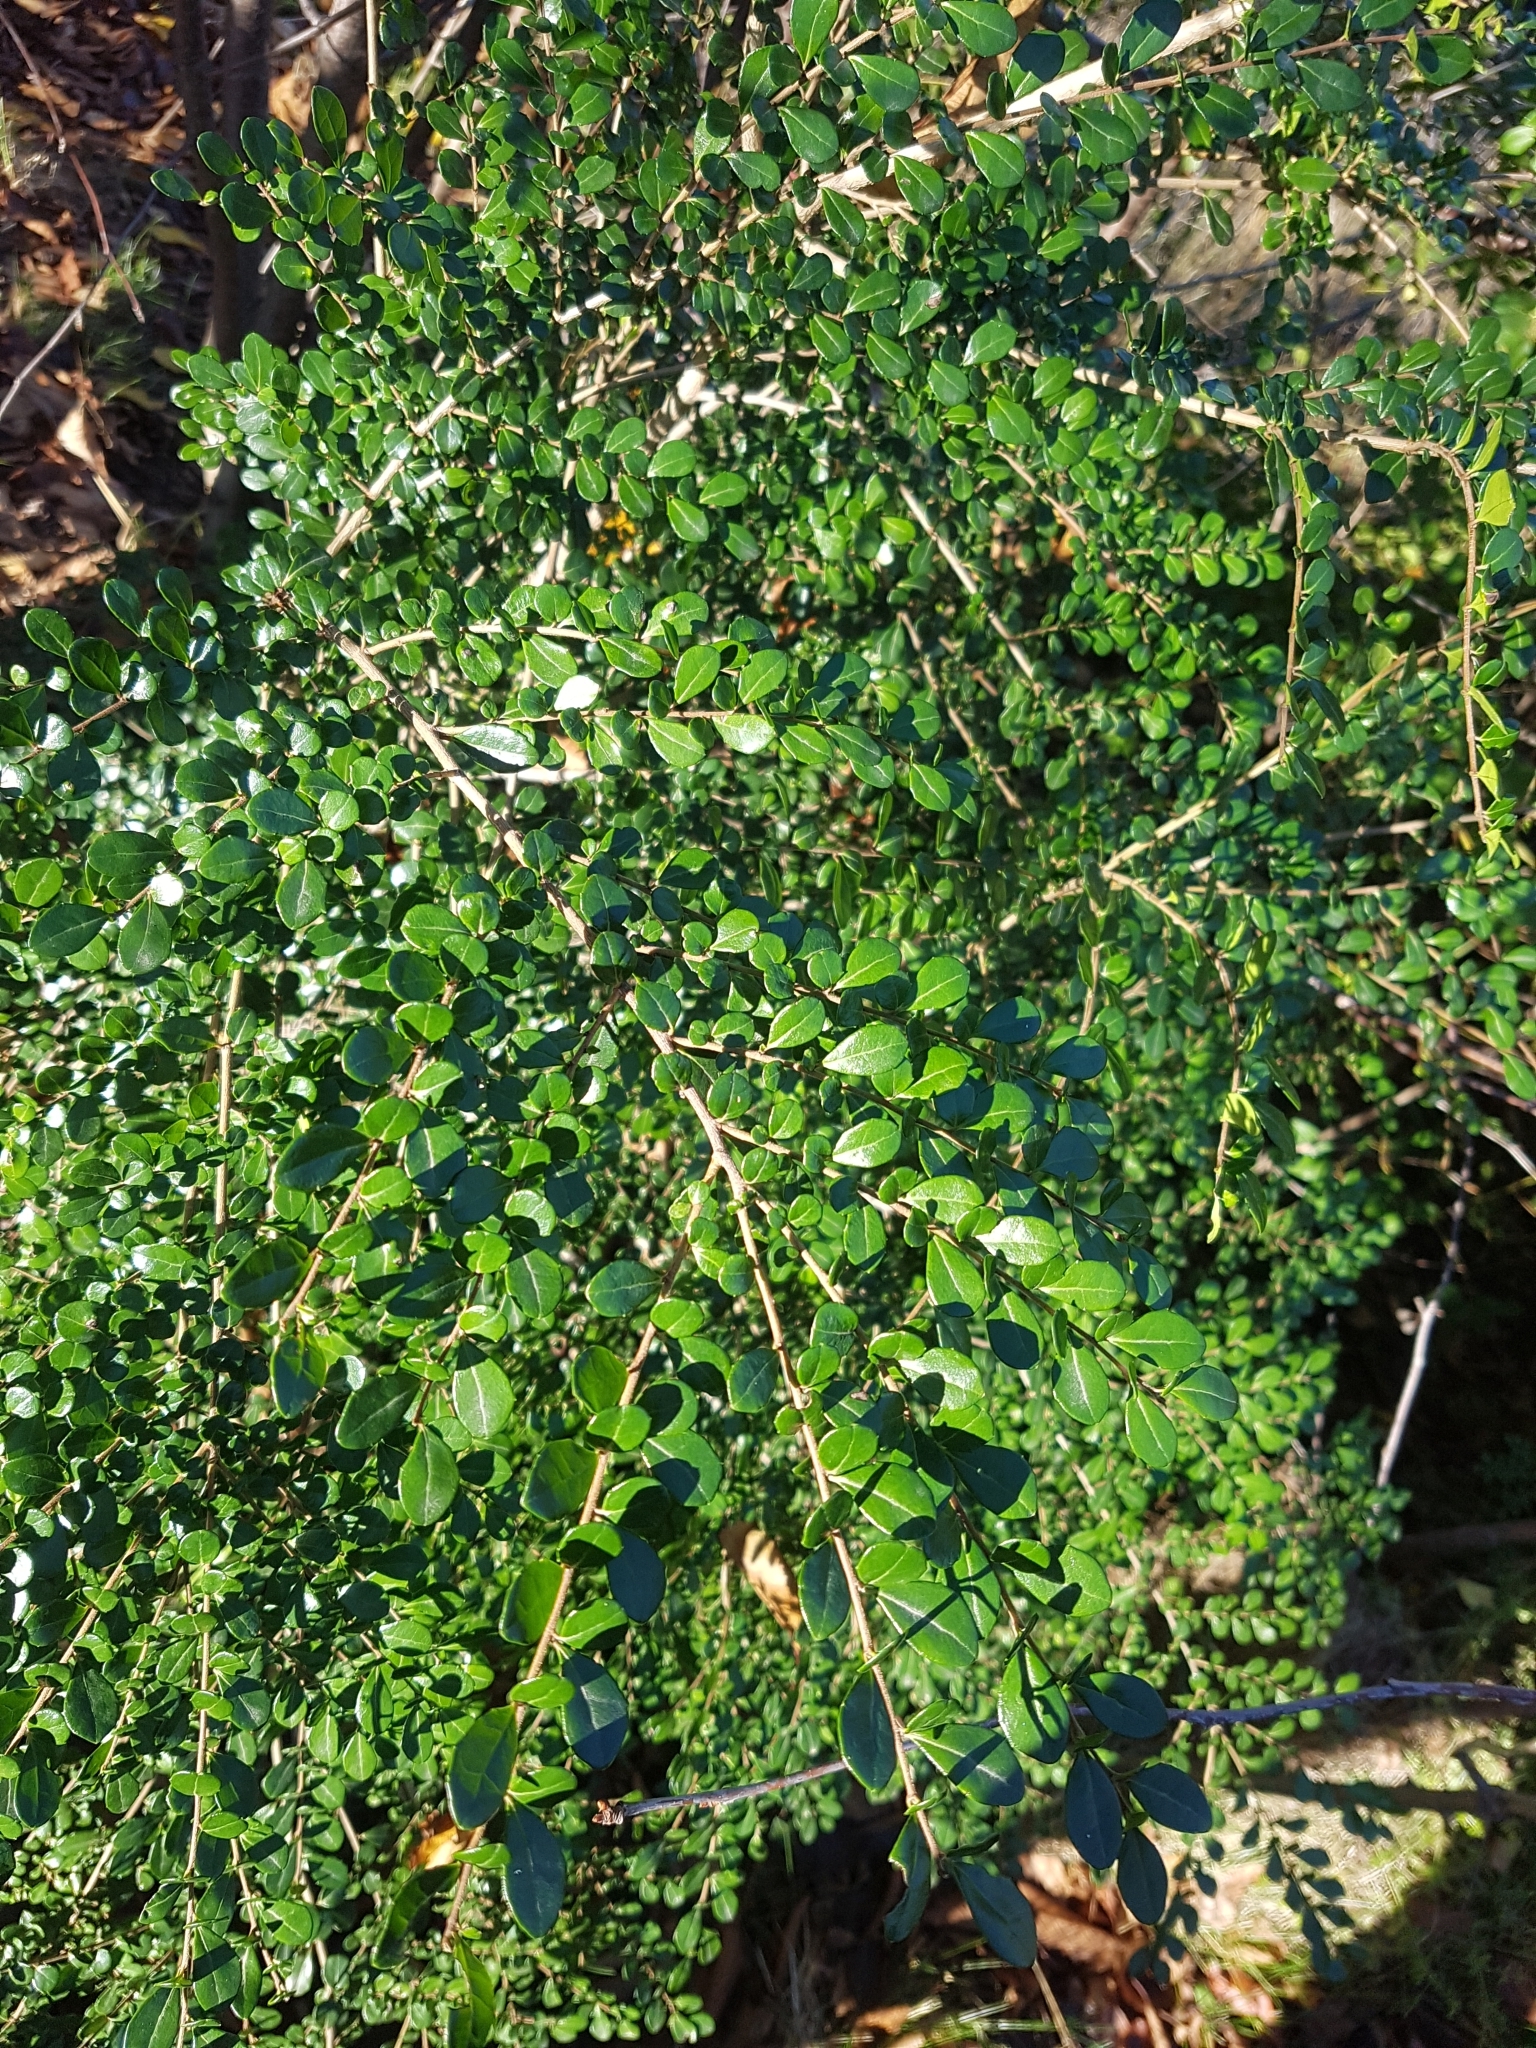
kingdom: Plantae
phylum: Tracheophyta
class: Magnoliopsida
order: Malpighiales
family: Salicaceae
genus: Azara
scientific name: Azara microphylla
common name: Box-leaf azara
